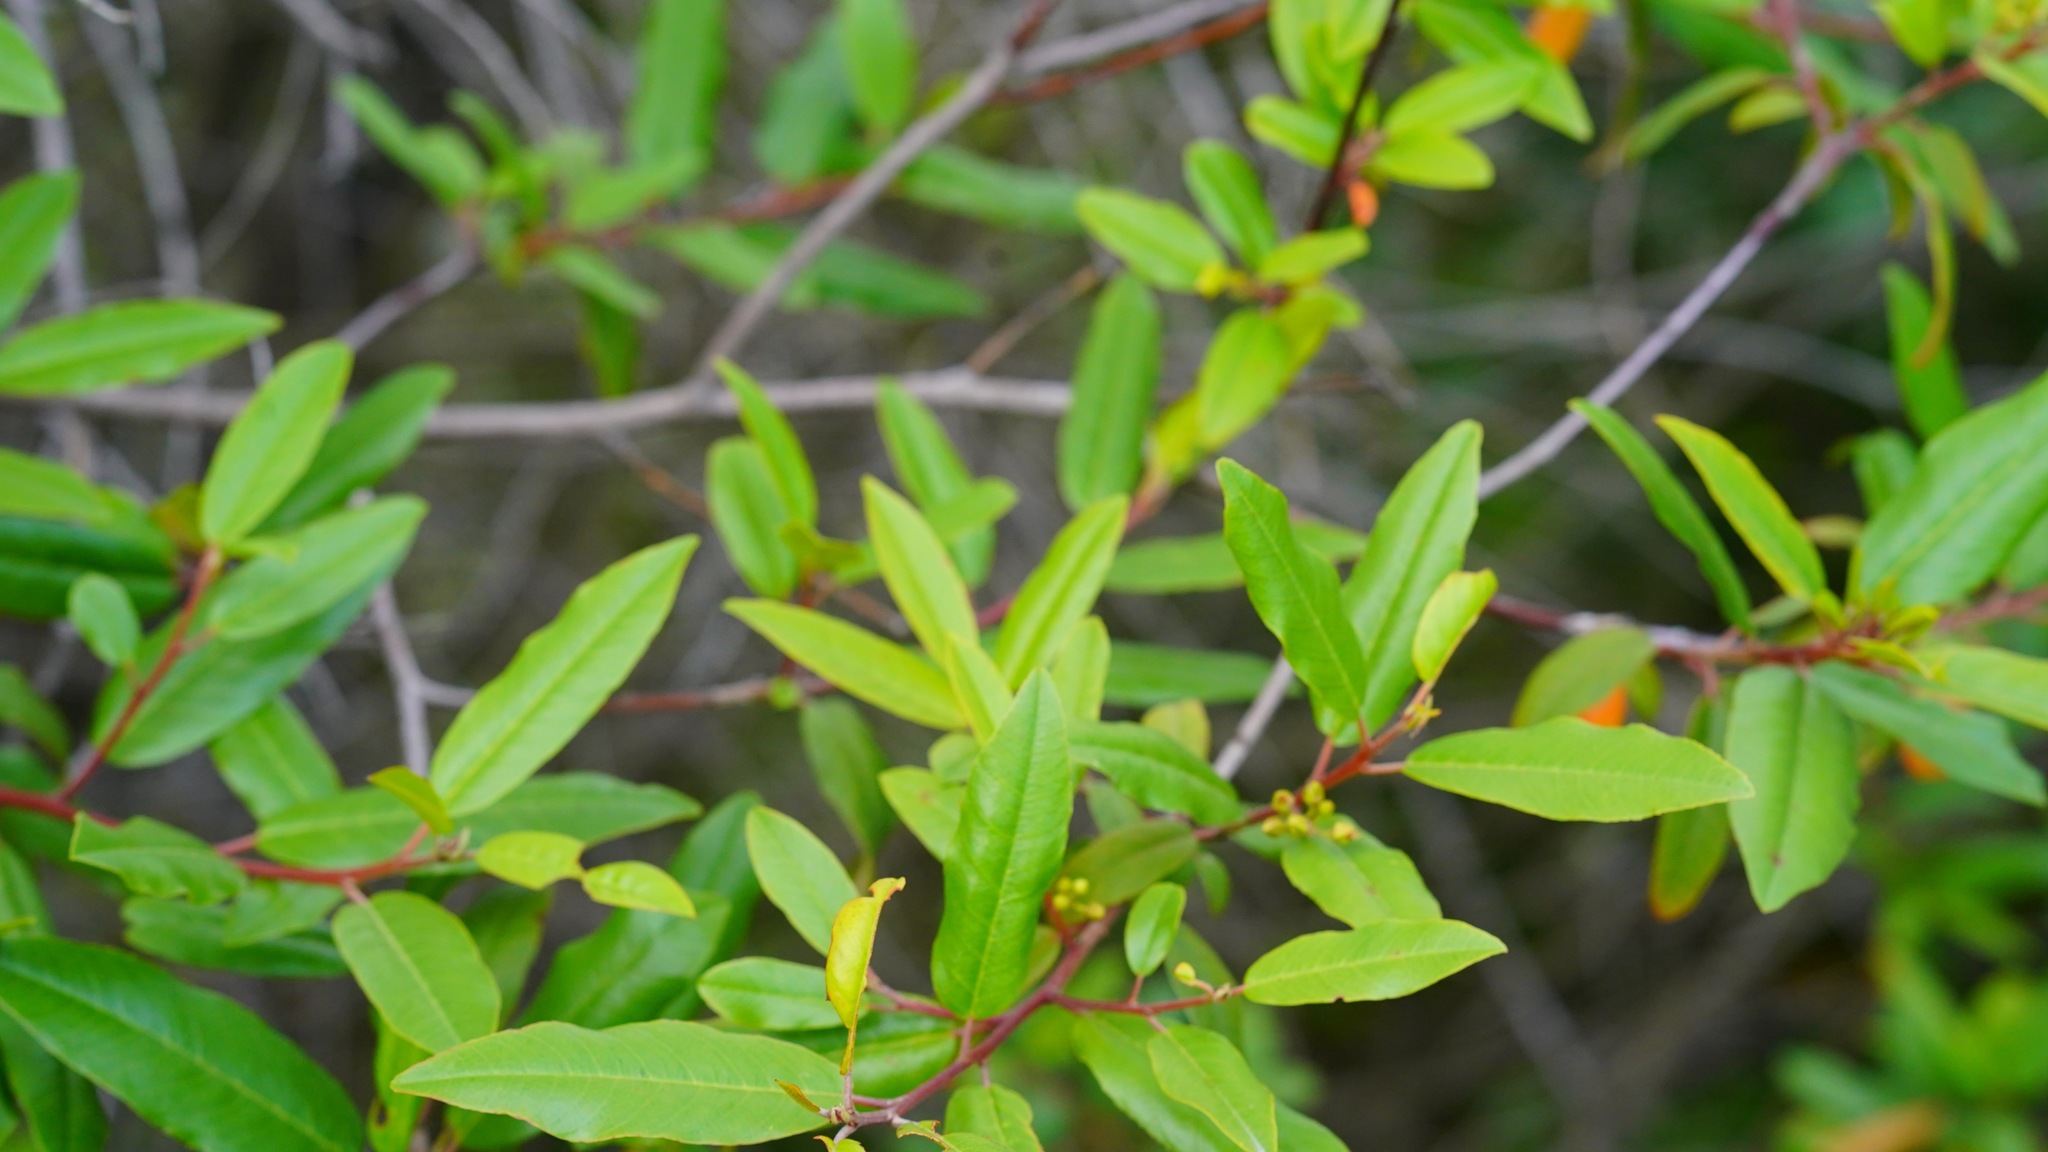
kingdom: Plantae
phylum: Tracheophyta
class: Magnoliopsida
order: Rosales
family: Rhamnaceae
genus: Frangula
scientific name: Frangula californica
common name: California buckthorn
